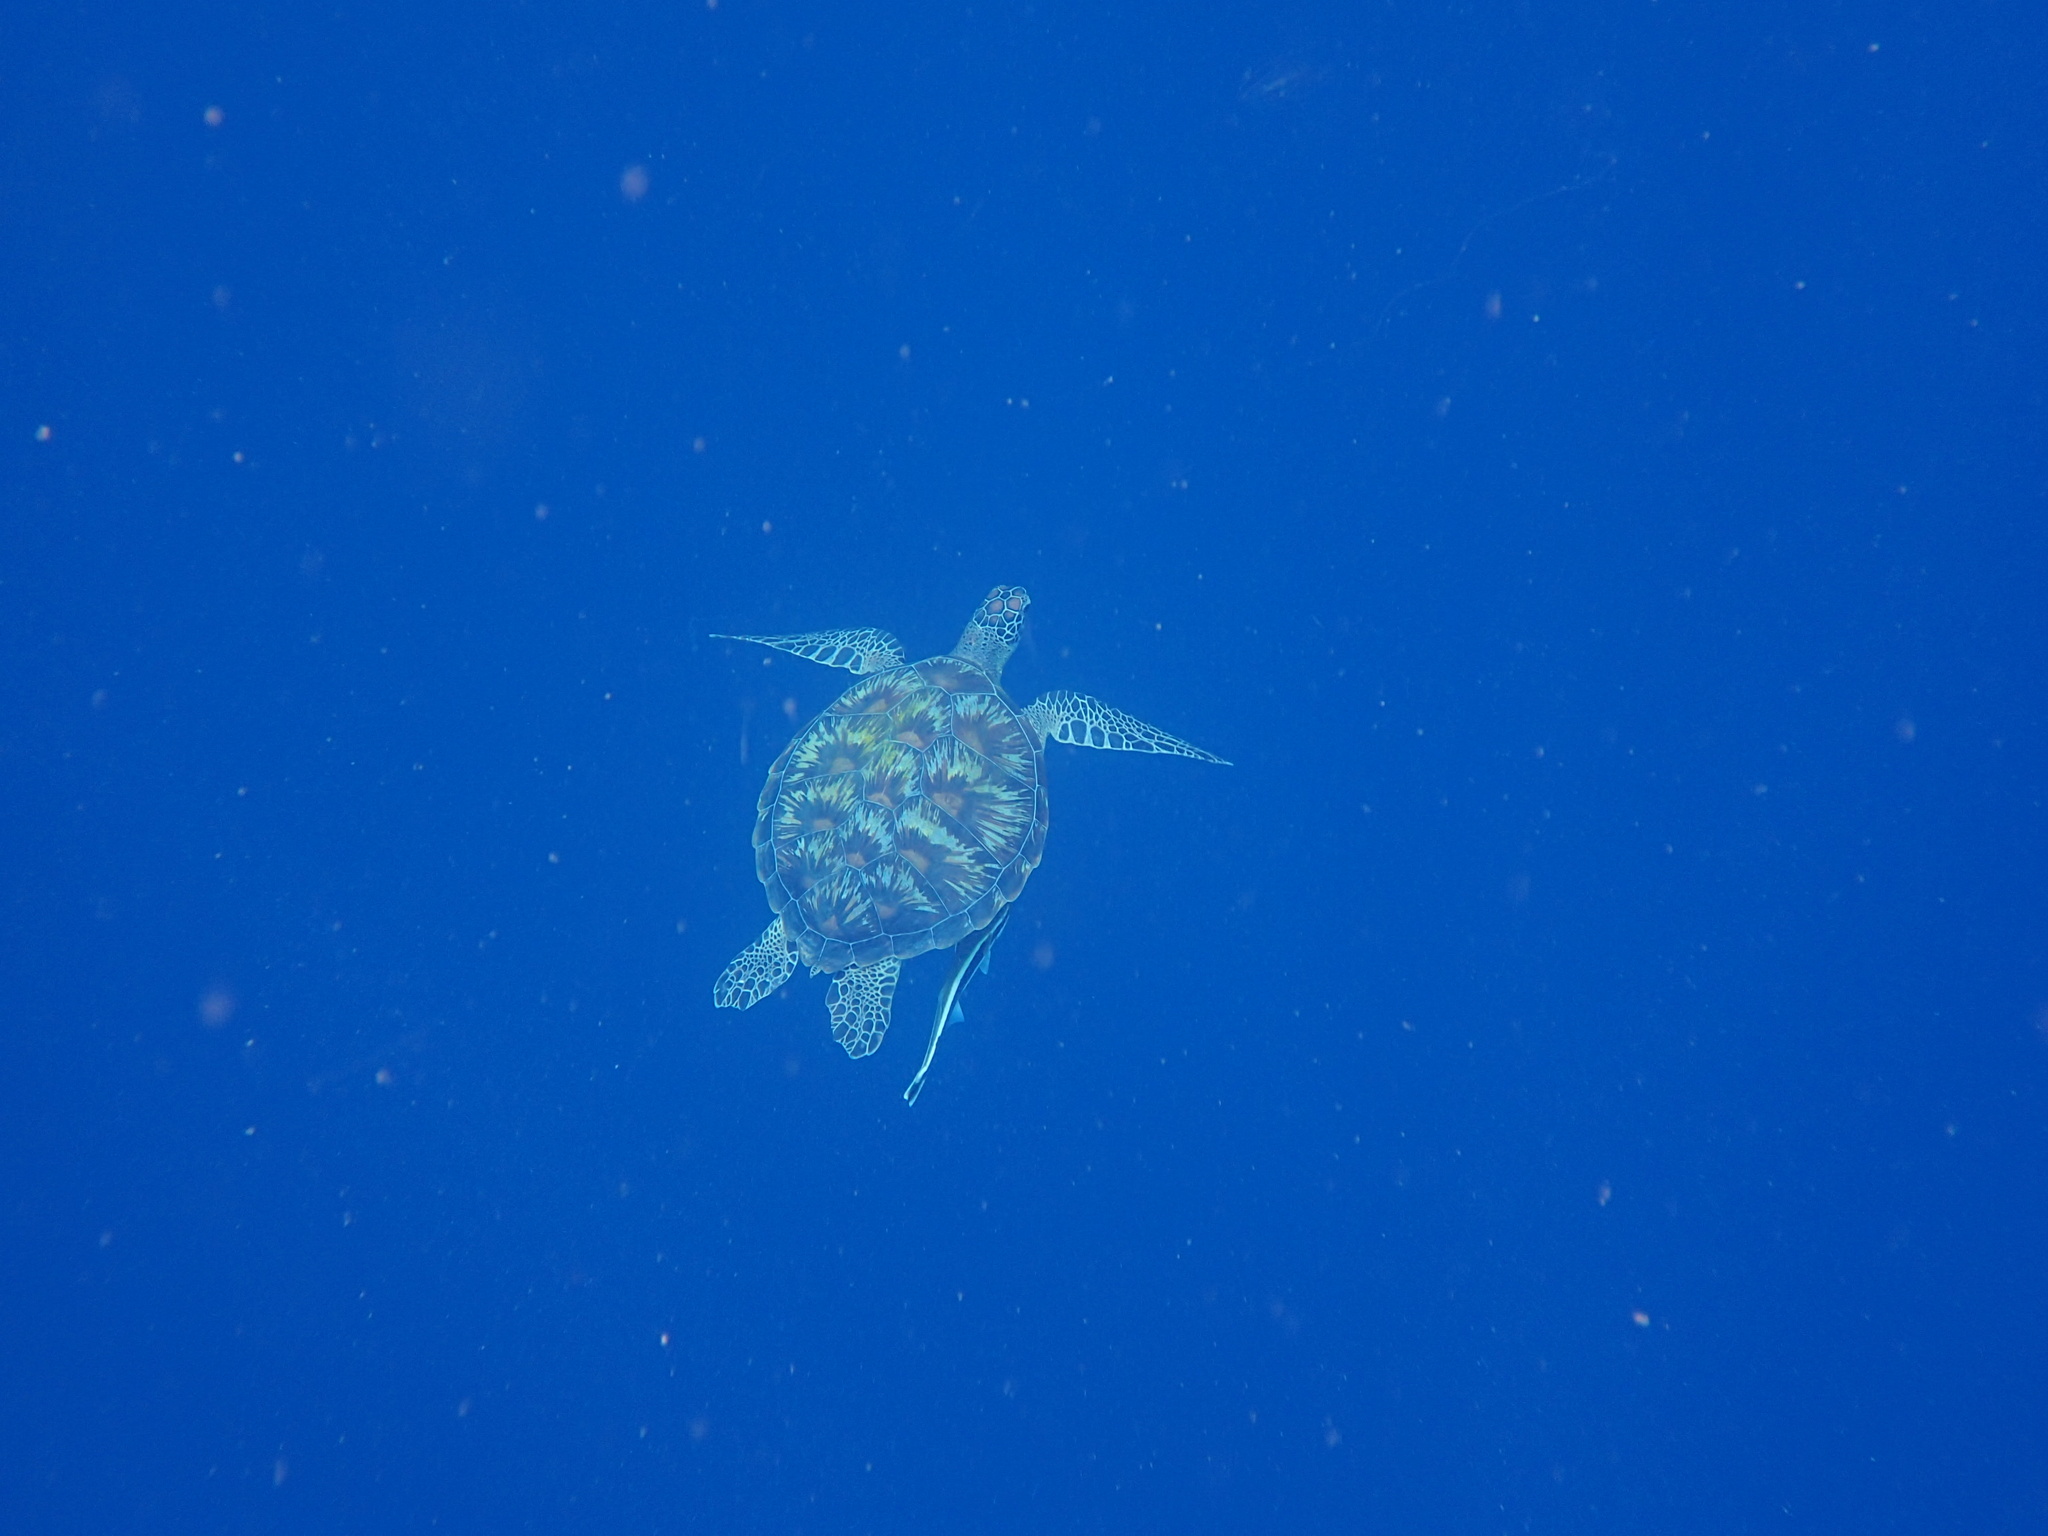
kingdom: Animalia
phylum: Chordata
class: Testudines
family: Cheloniidae
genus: Chelonia
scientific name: Chelonia mydas
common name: Green turtle
